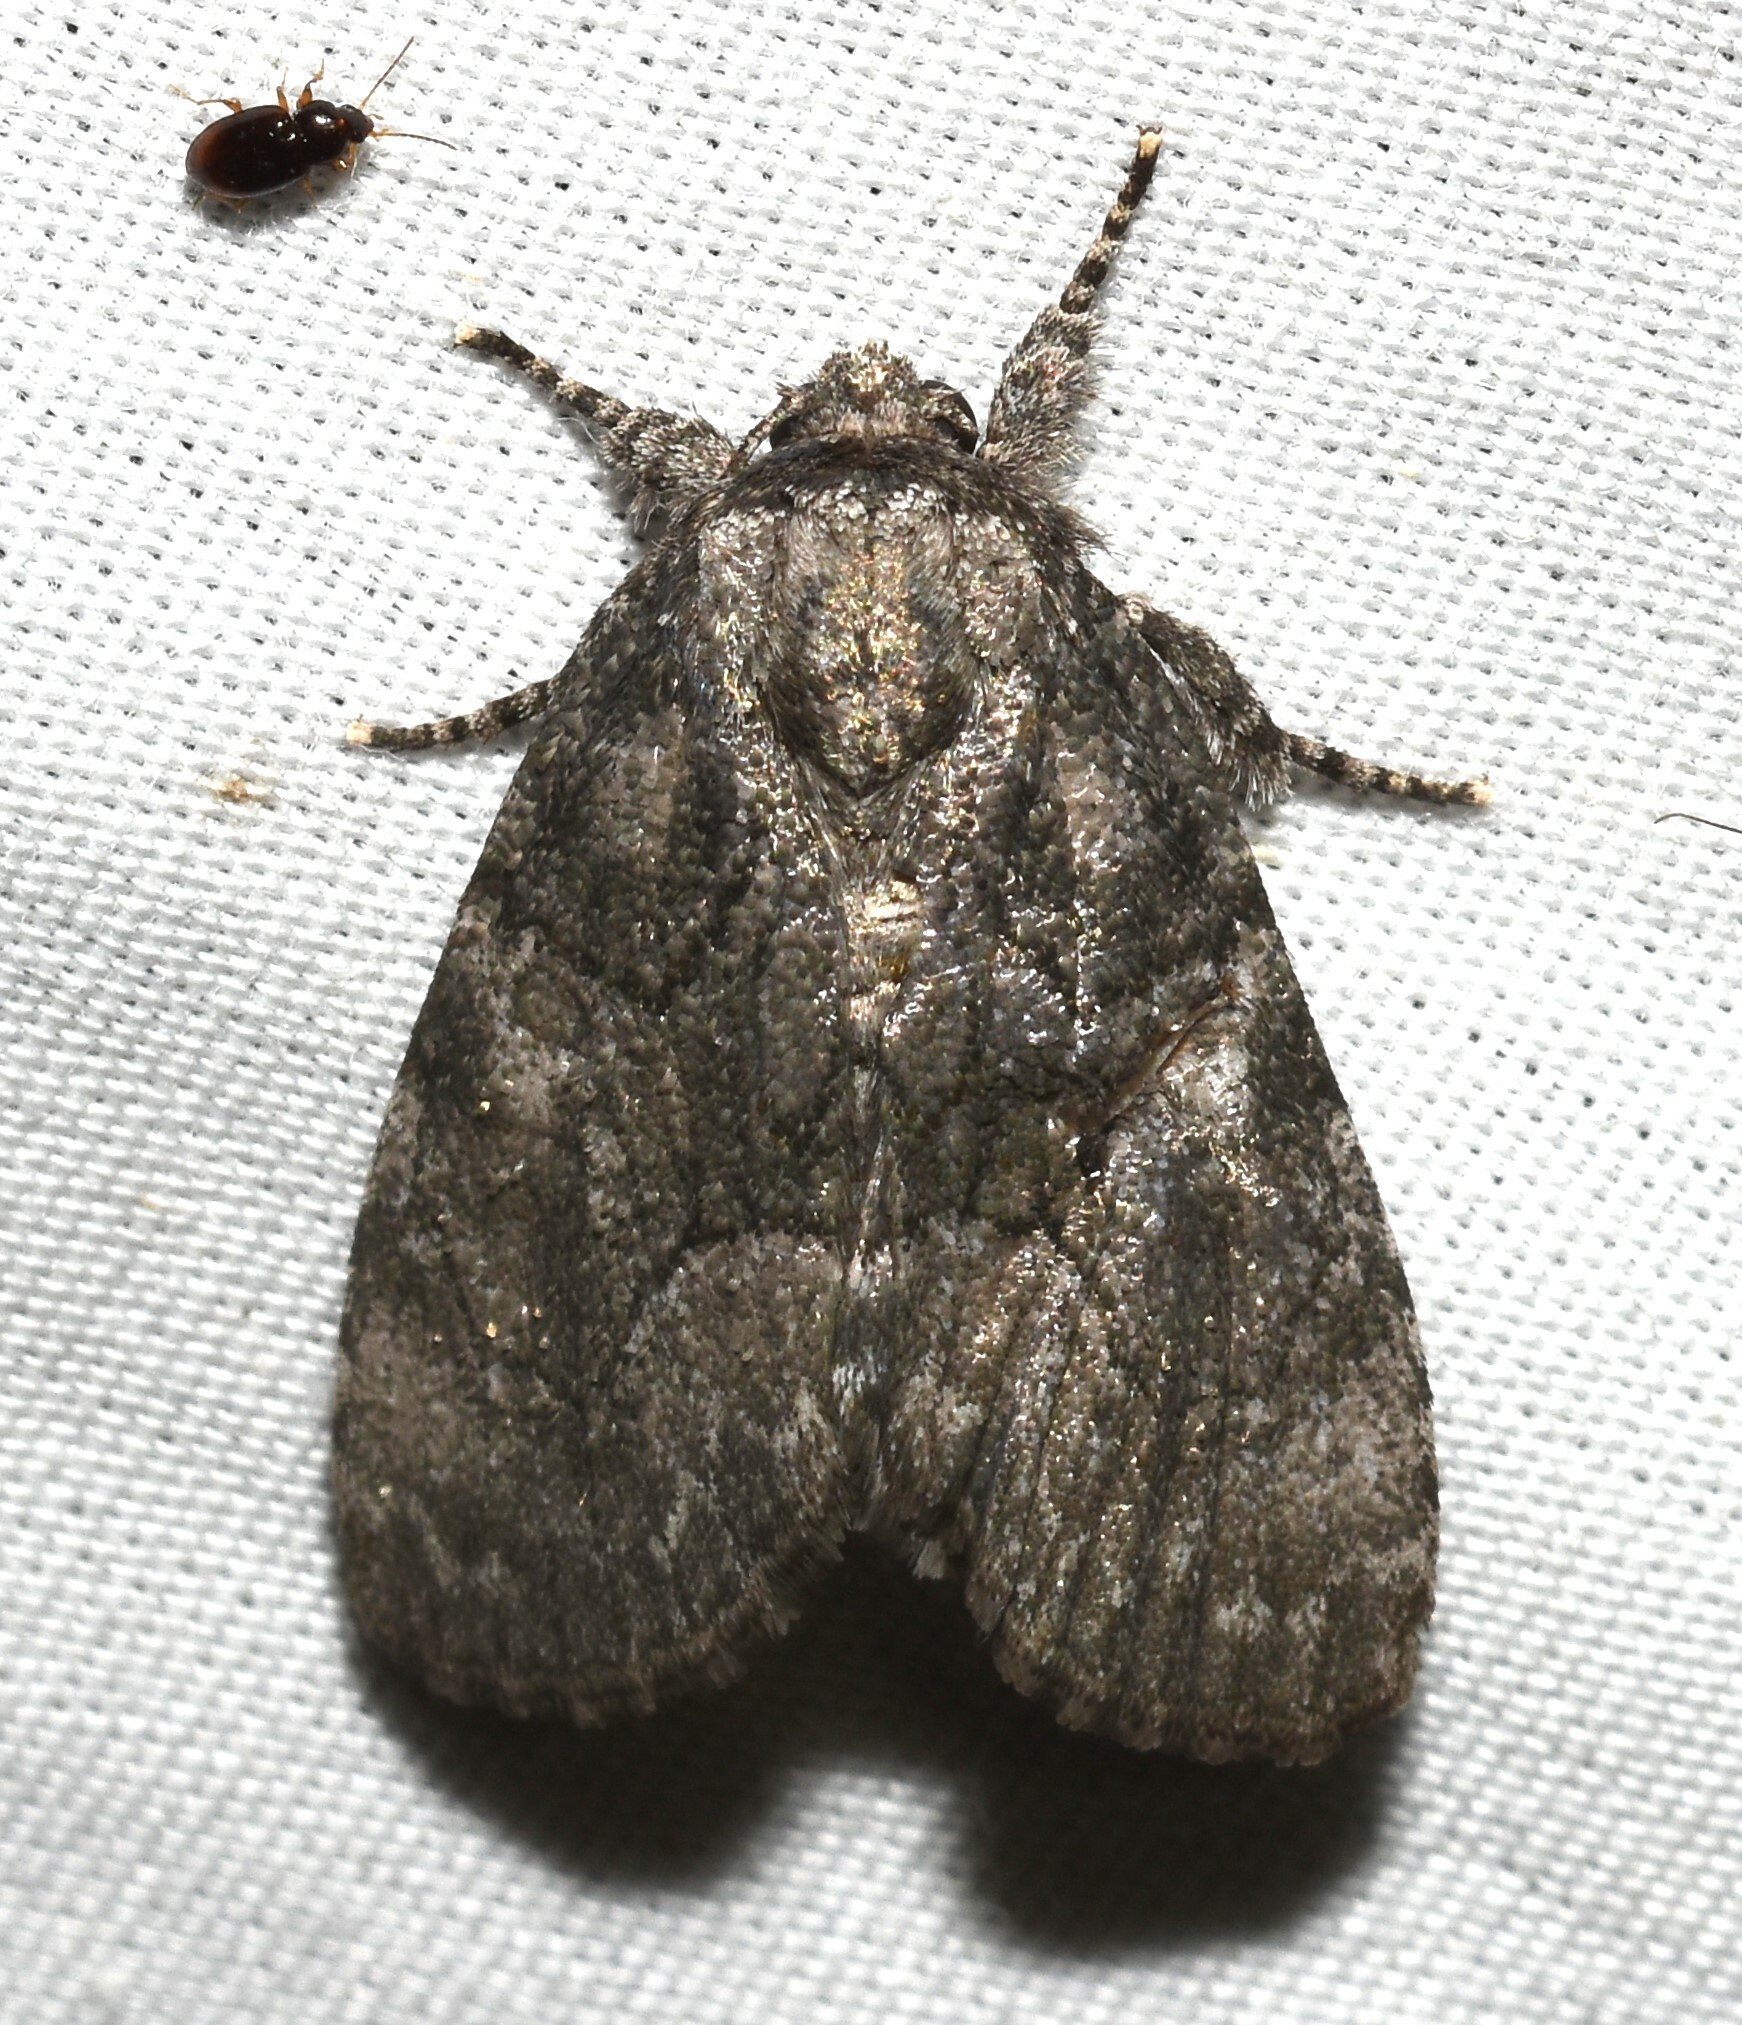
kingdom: Animalia
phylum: Arthropoda
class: Insecta
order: Lepidoptera
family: Noctuidae
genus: Raphia
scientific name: Raphia frater
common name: Brother
